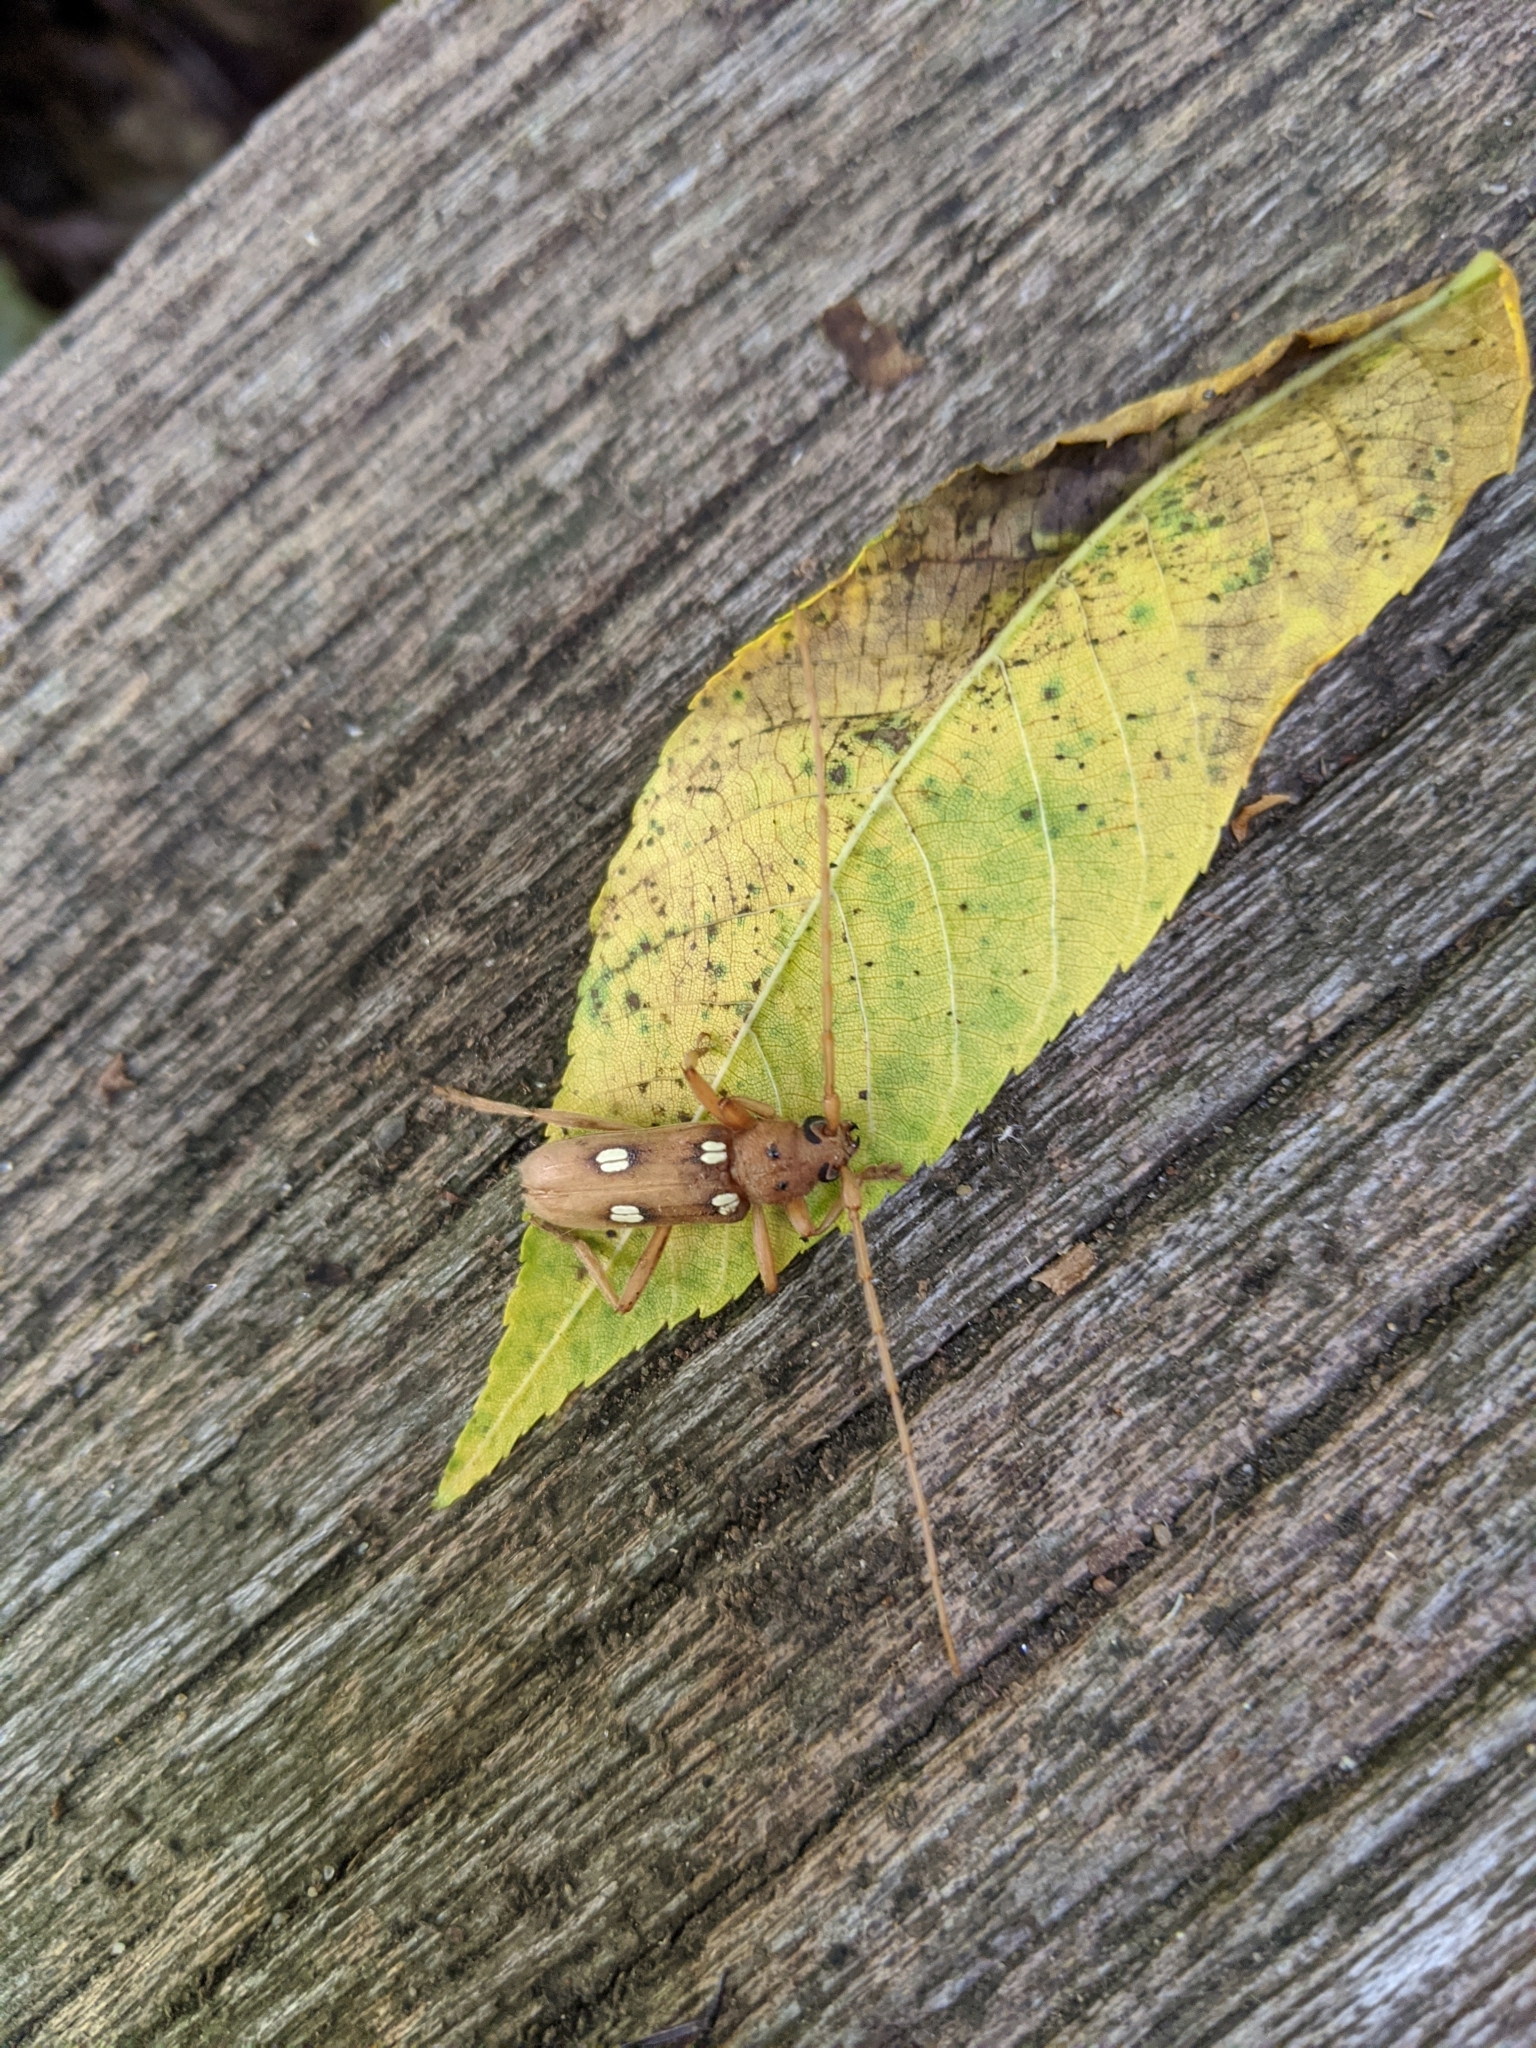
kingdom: Animalia
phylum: Arthropoda
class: Insecta
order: Coleoptera
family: Cerambycidae
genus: Eburia
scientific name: Eburia quadrigeminata
